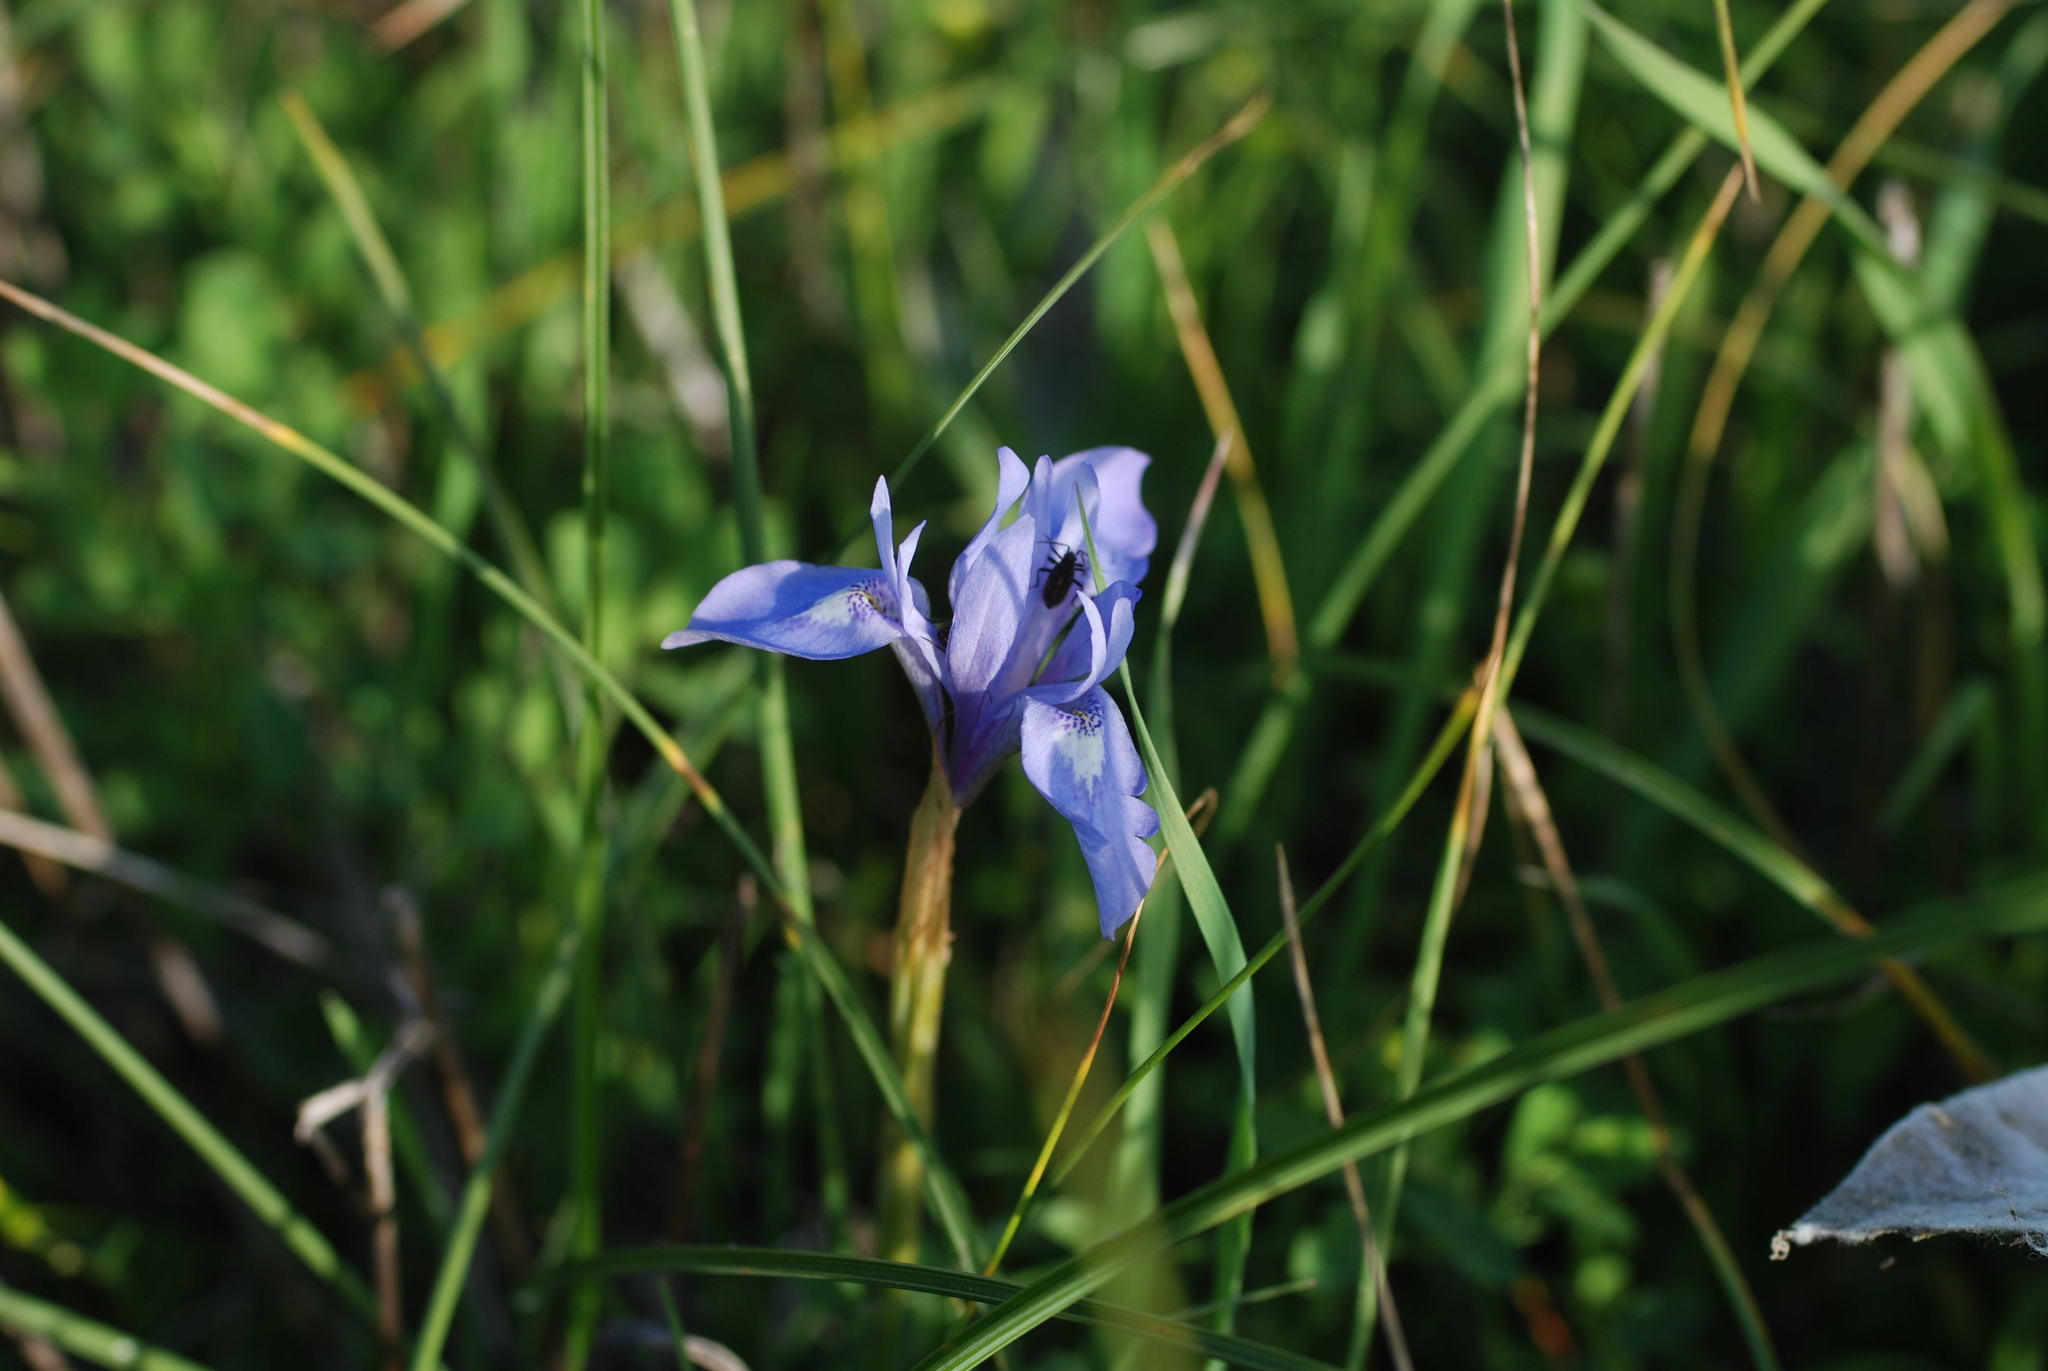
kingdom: Plantae
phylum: Tracheophyta
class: Liliopsida
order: Asparagales
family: Iridaceae
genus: Moraea
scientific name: Moraea sisyrinchium
